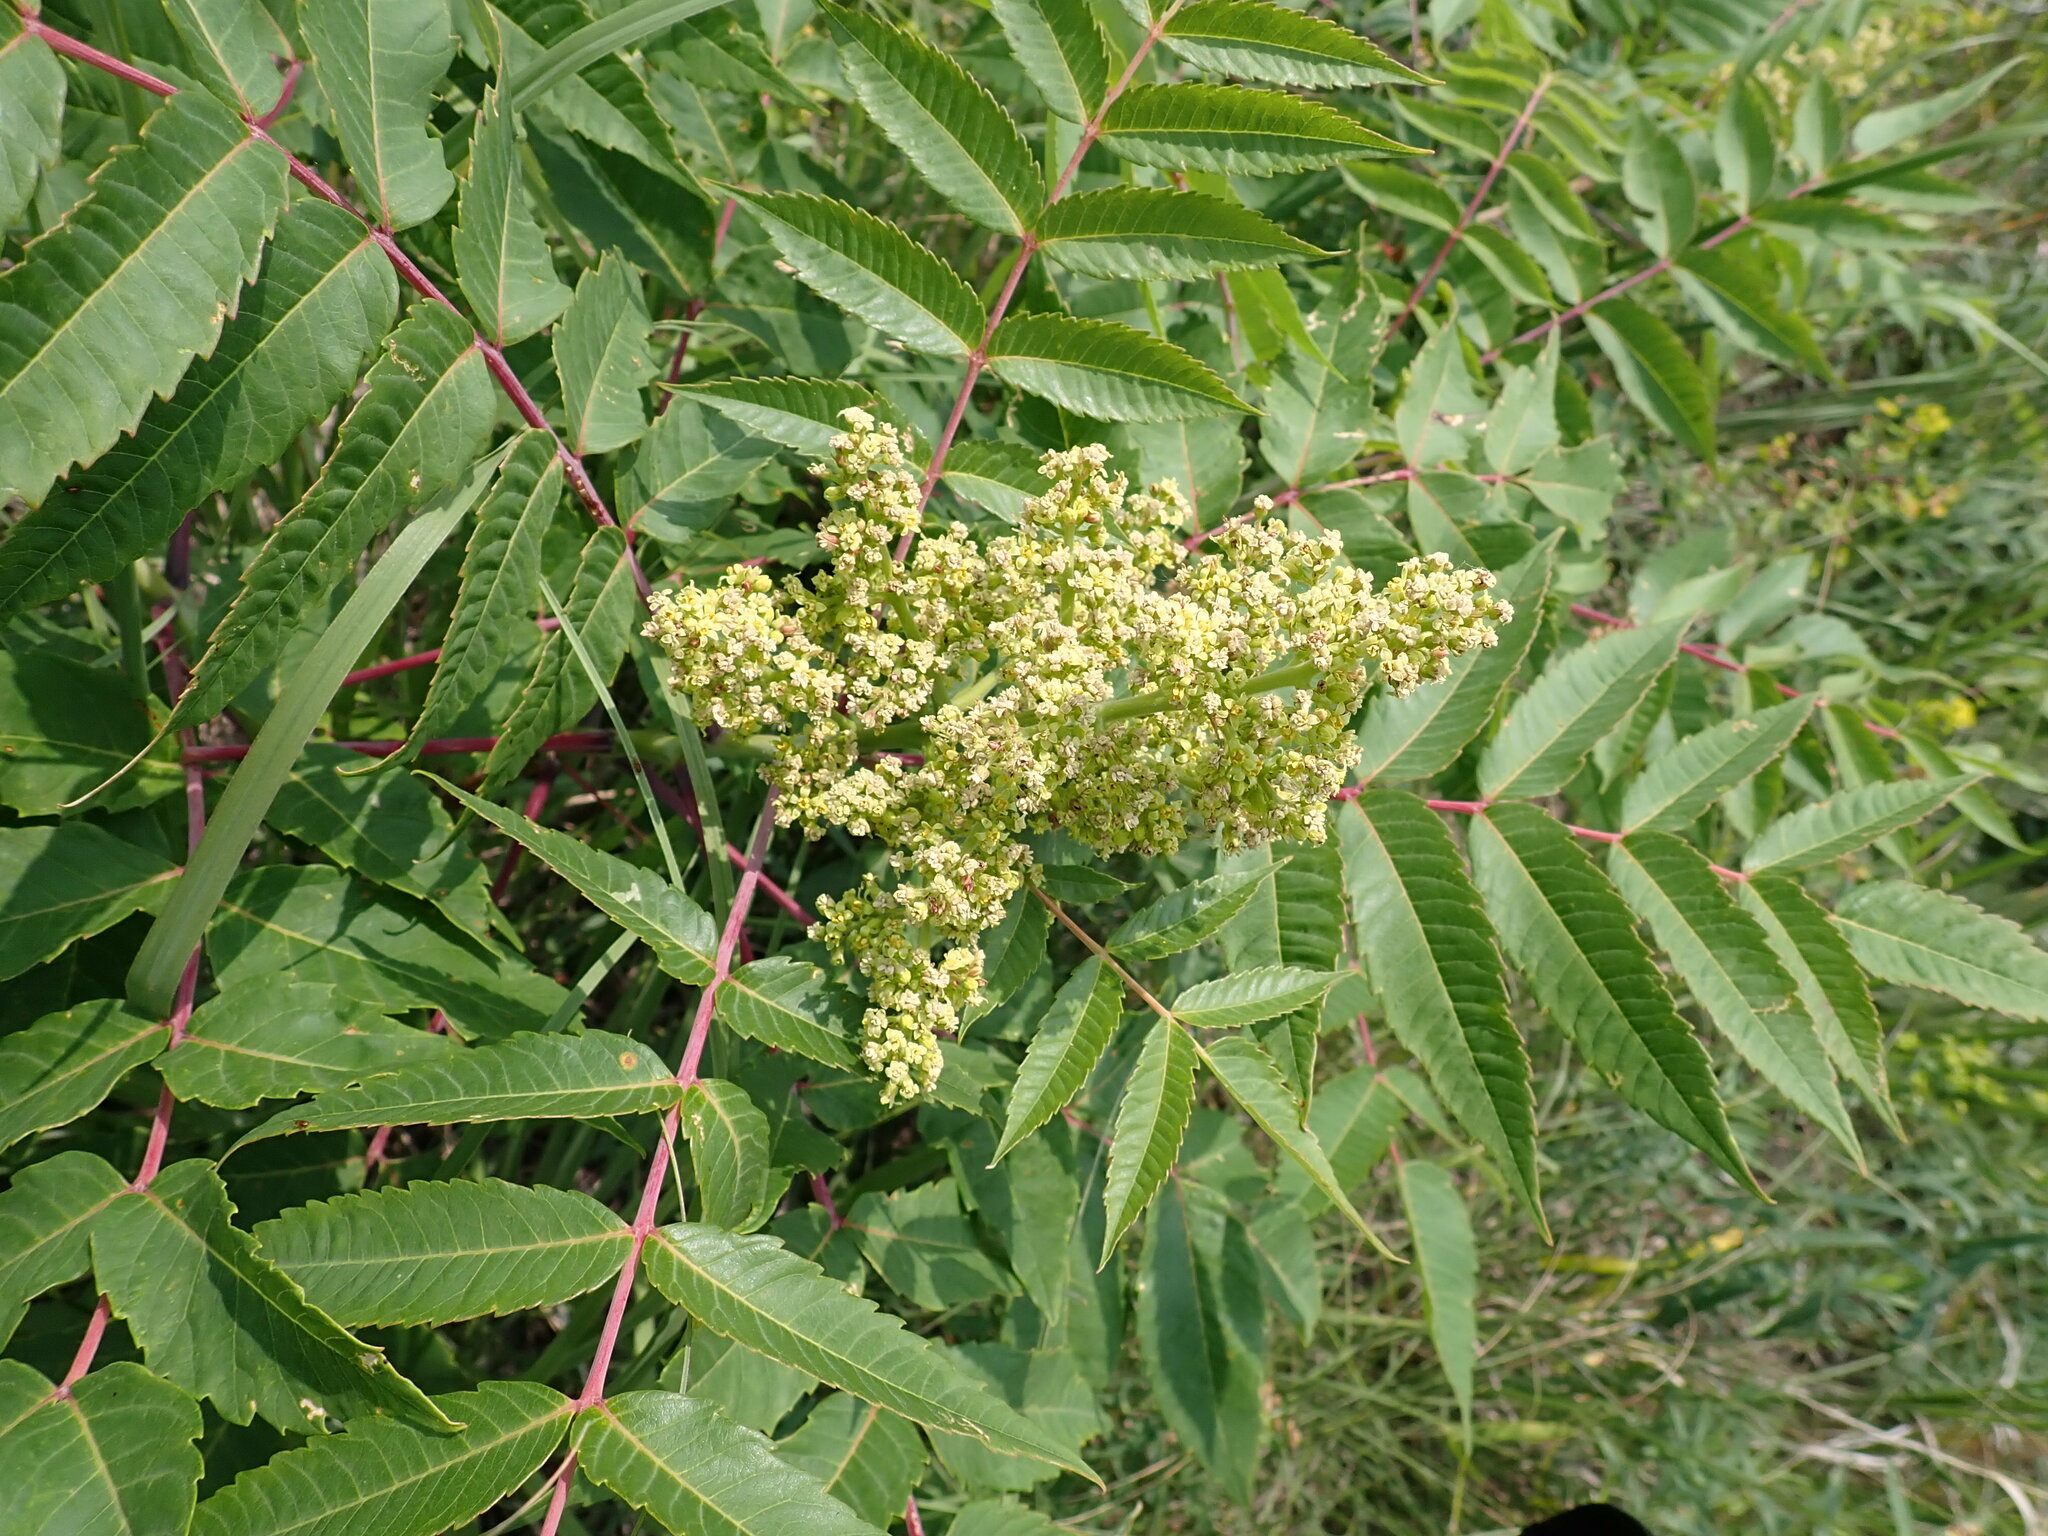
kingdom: Plantae
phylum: Tracheophyta
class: Magnoliopsida
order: Sapindales
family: Anacardiaceae
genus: Rhus
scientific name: Rhus glabra
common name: Scarlet sumac
